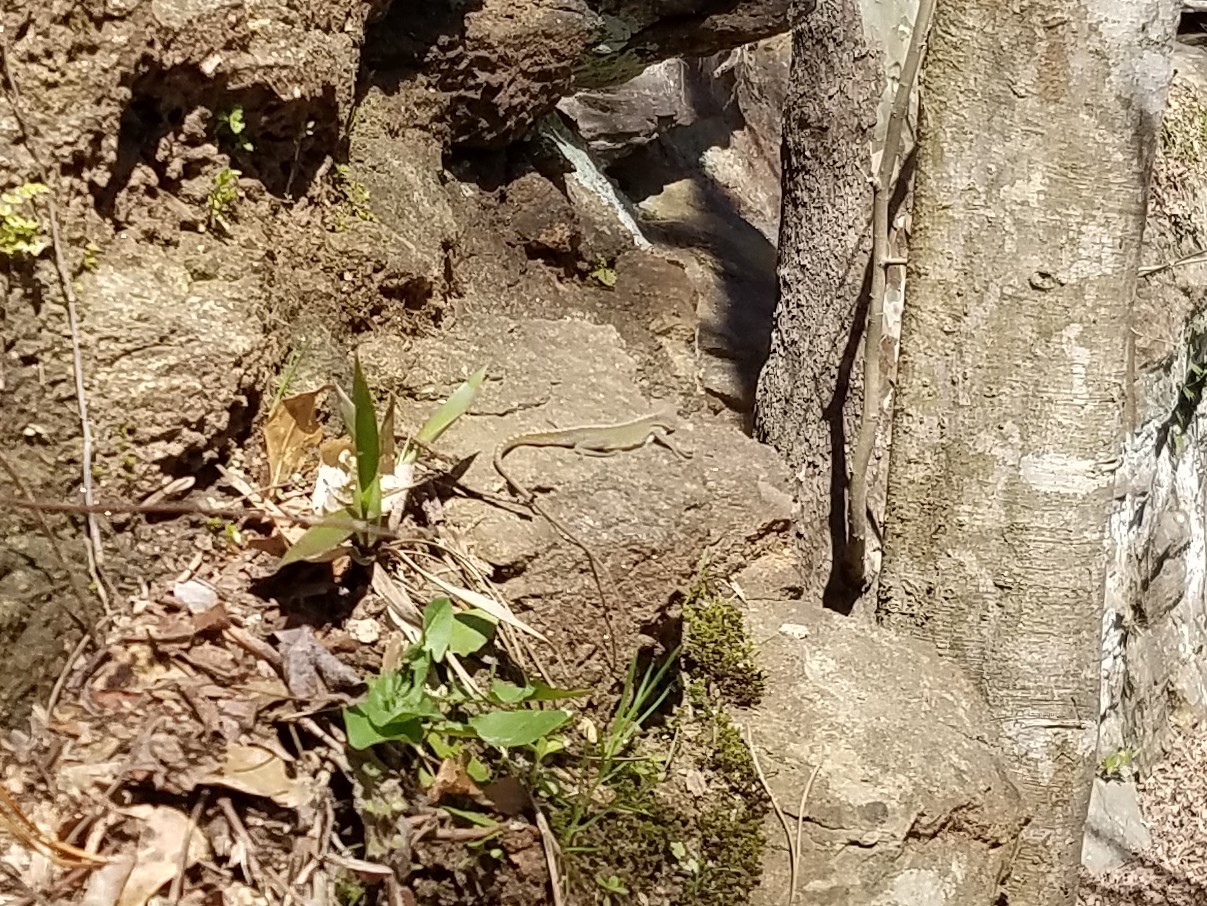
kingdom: Animalia
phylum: Chordata
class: Squamata
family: Dactyloidae
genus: Anolis
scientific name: Anolis carolinensis
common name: Green anole
